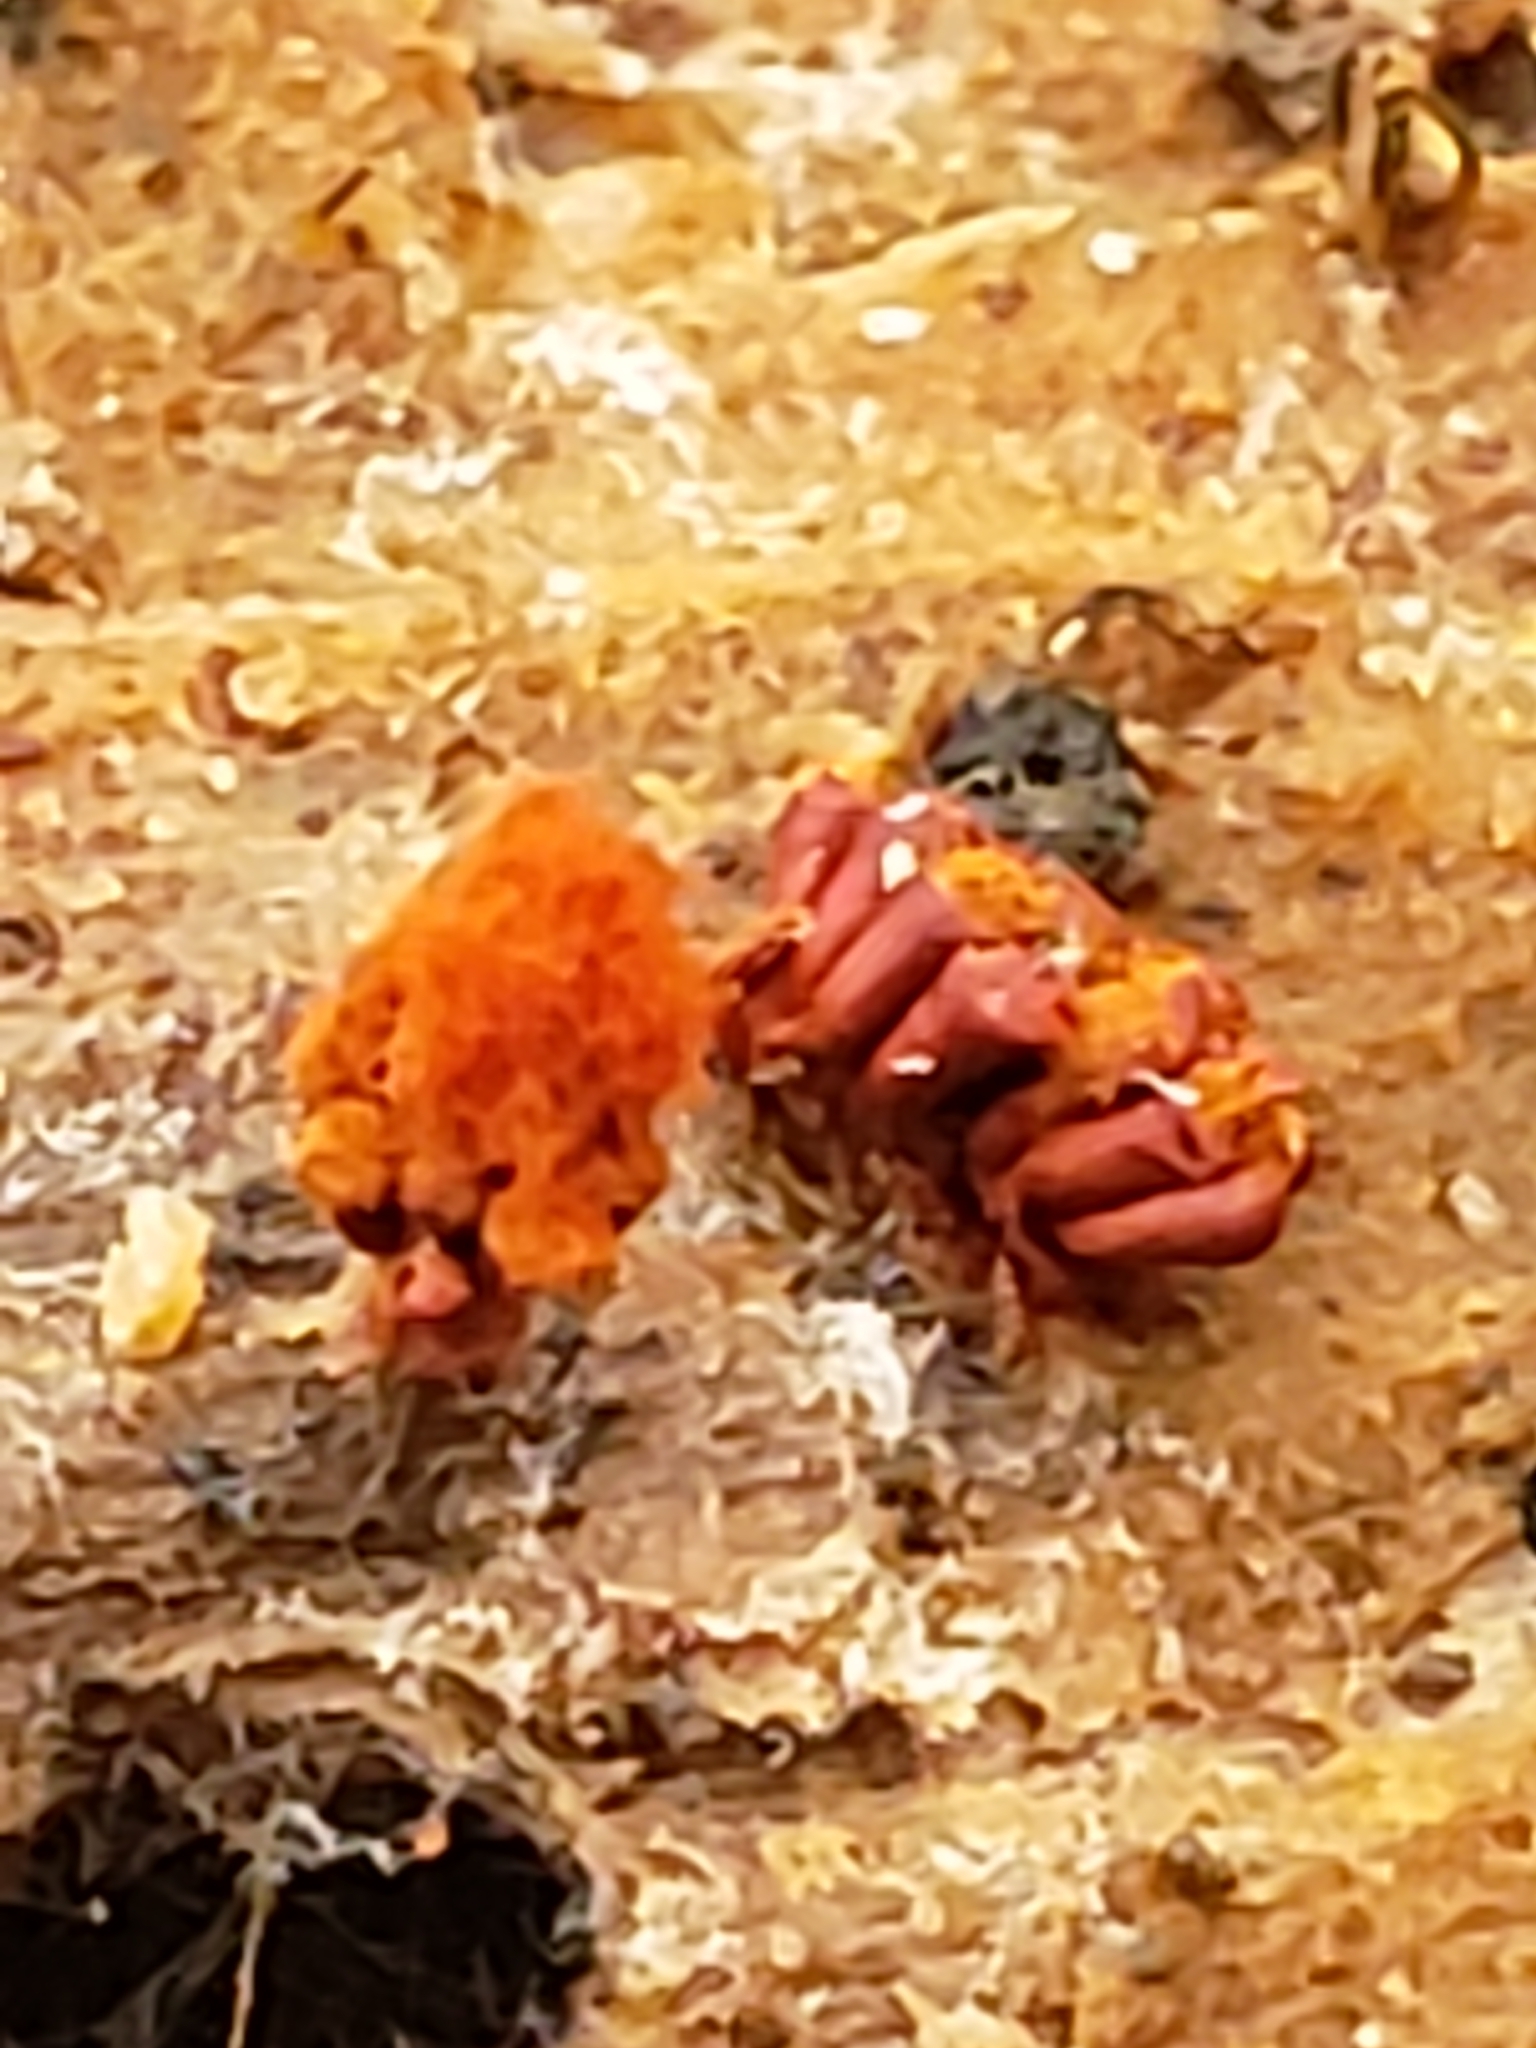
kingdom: Protozoa
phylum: Mycetozoa
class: Myxomycetes
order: Trichiales
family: Trichiaceae
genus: Metatrichia
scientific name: Metatrichia vesparia
